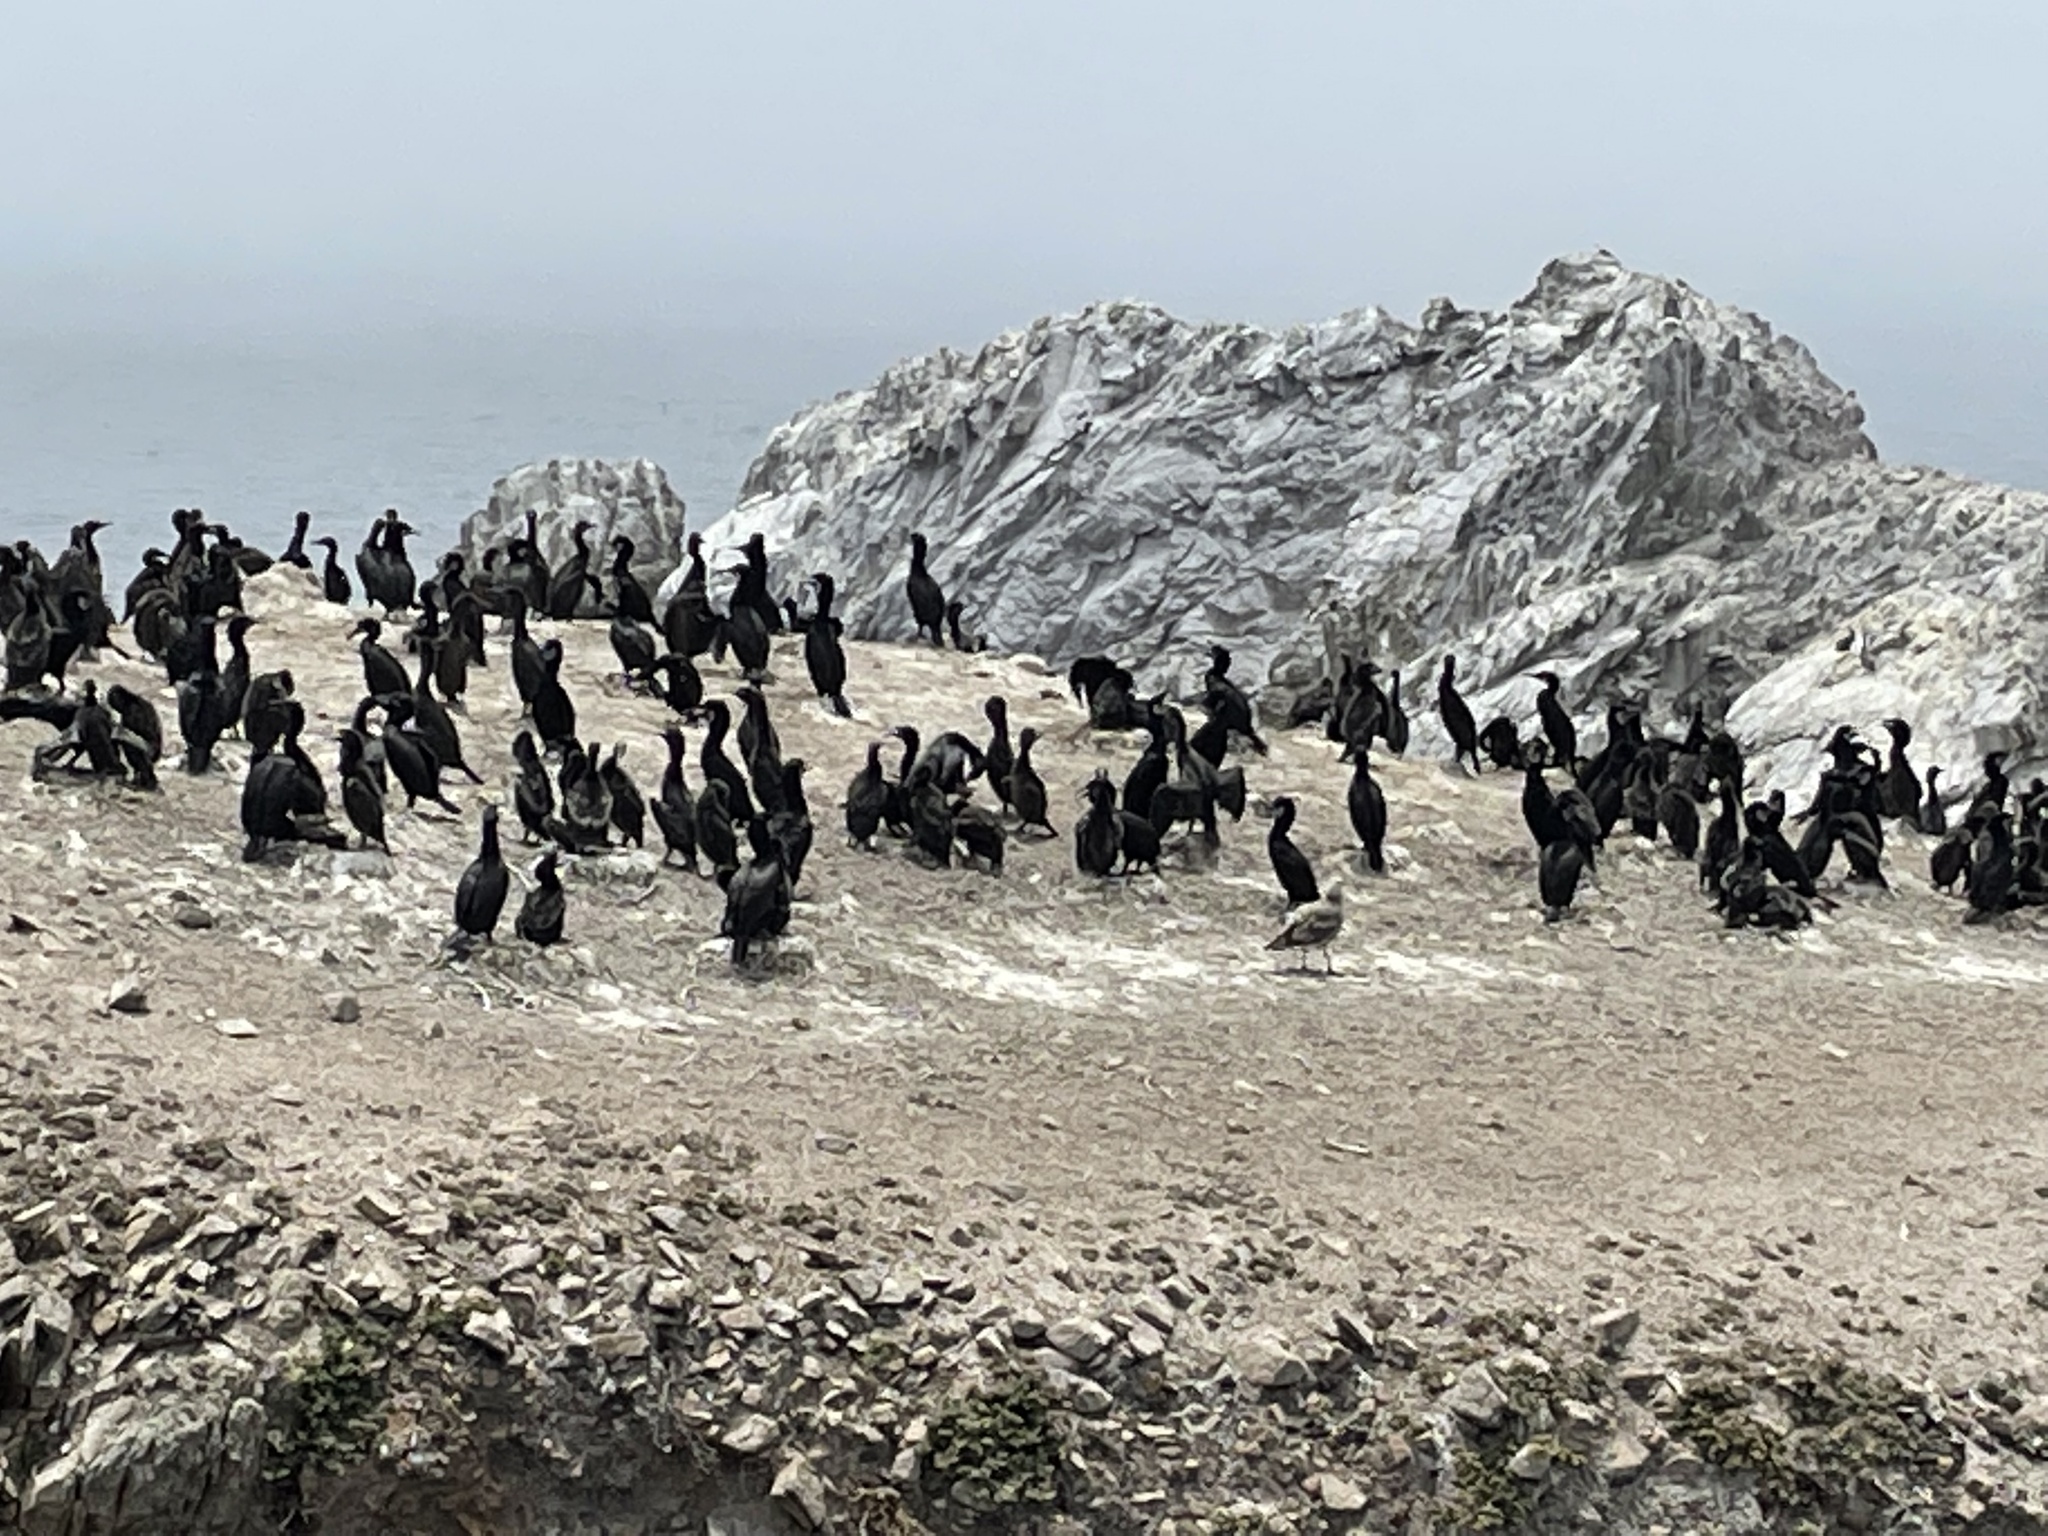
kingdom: Animalia
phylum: Chordata
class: Aves
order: Suliformes
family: Phalacrocoracidae
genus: Urile
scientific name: Urile penicillatus
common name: Brandt's cormorant
